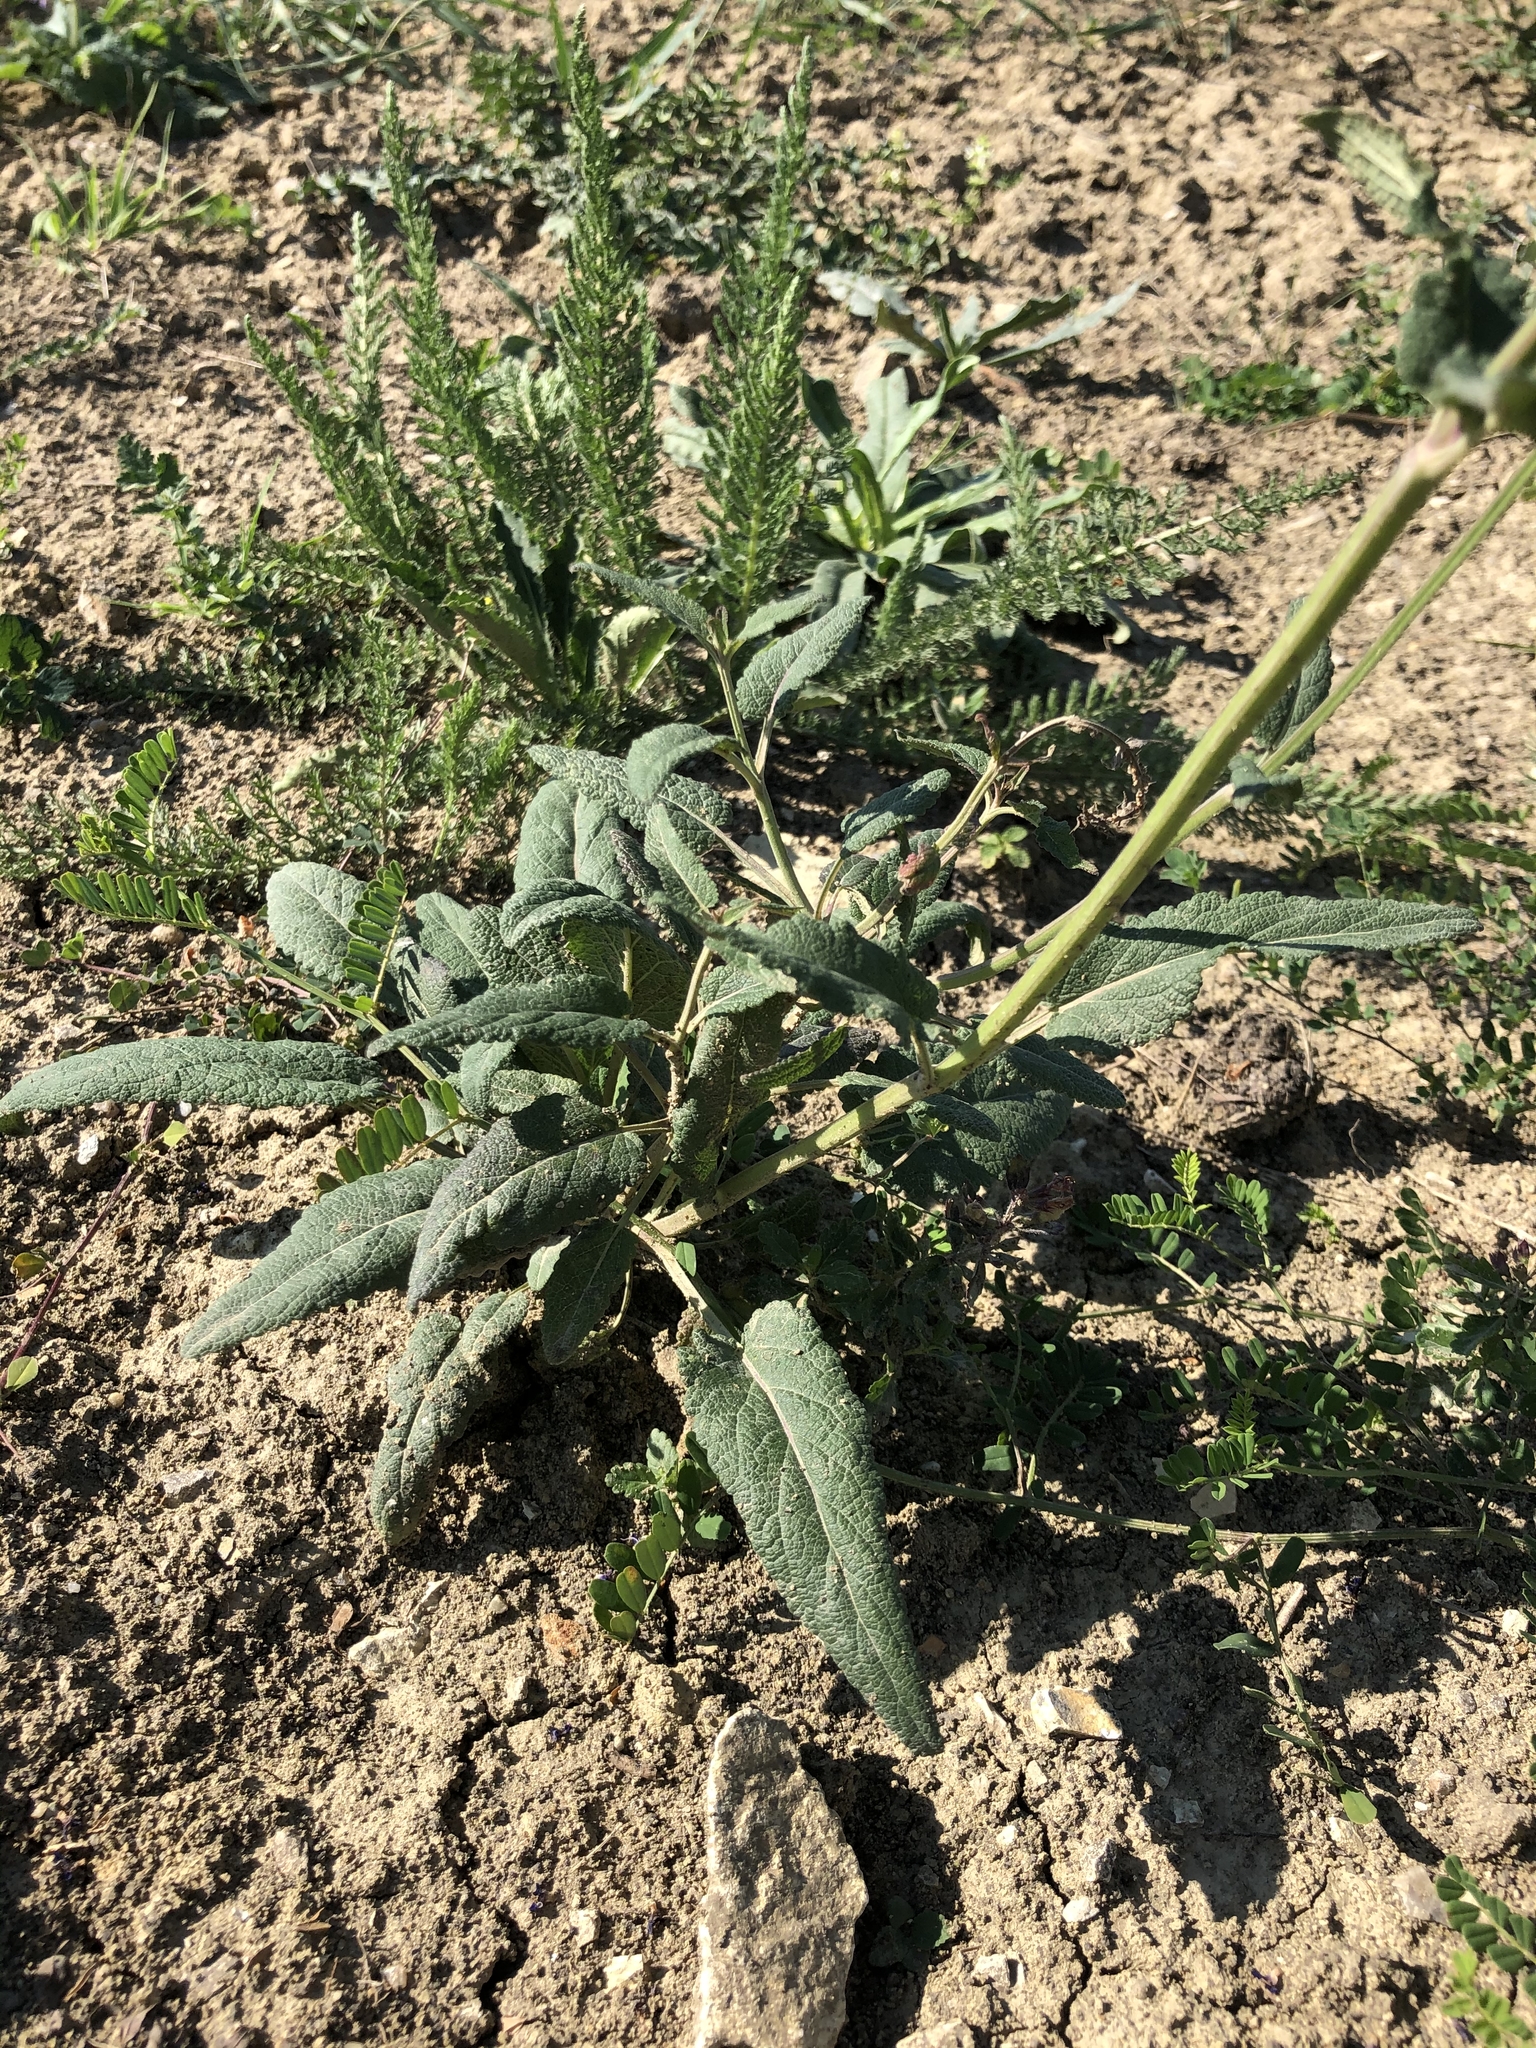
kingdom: Plantae
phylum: Tracheophyta
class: Magnoliopsida
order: Lamiales
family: Lamiaceae
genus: Salvia
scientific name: Salvia nemorosa
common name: Balkan clary
